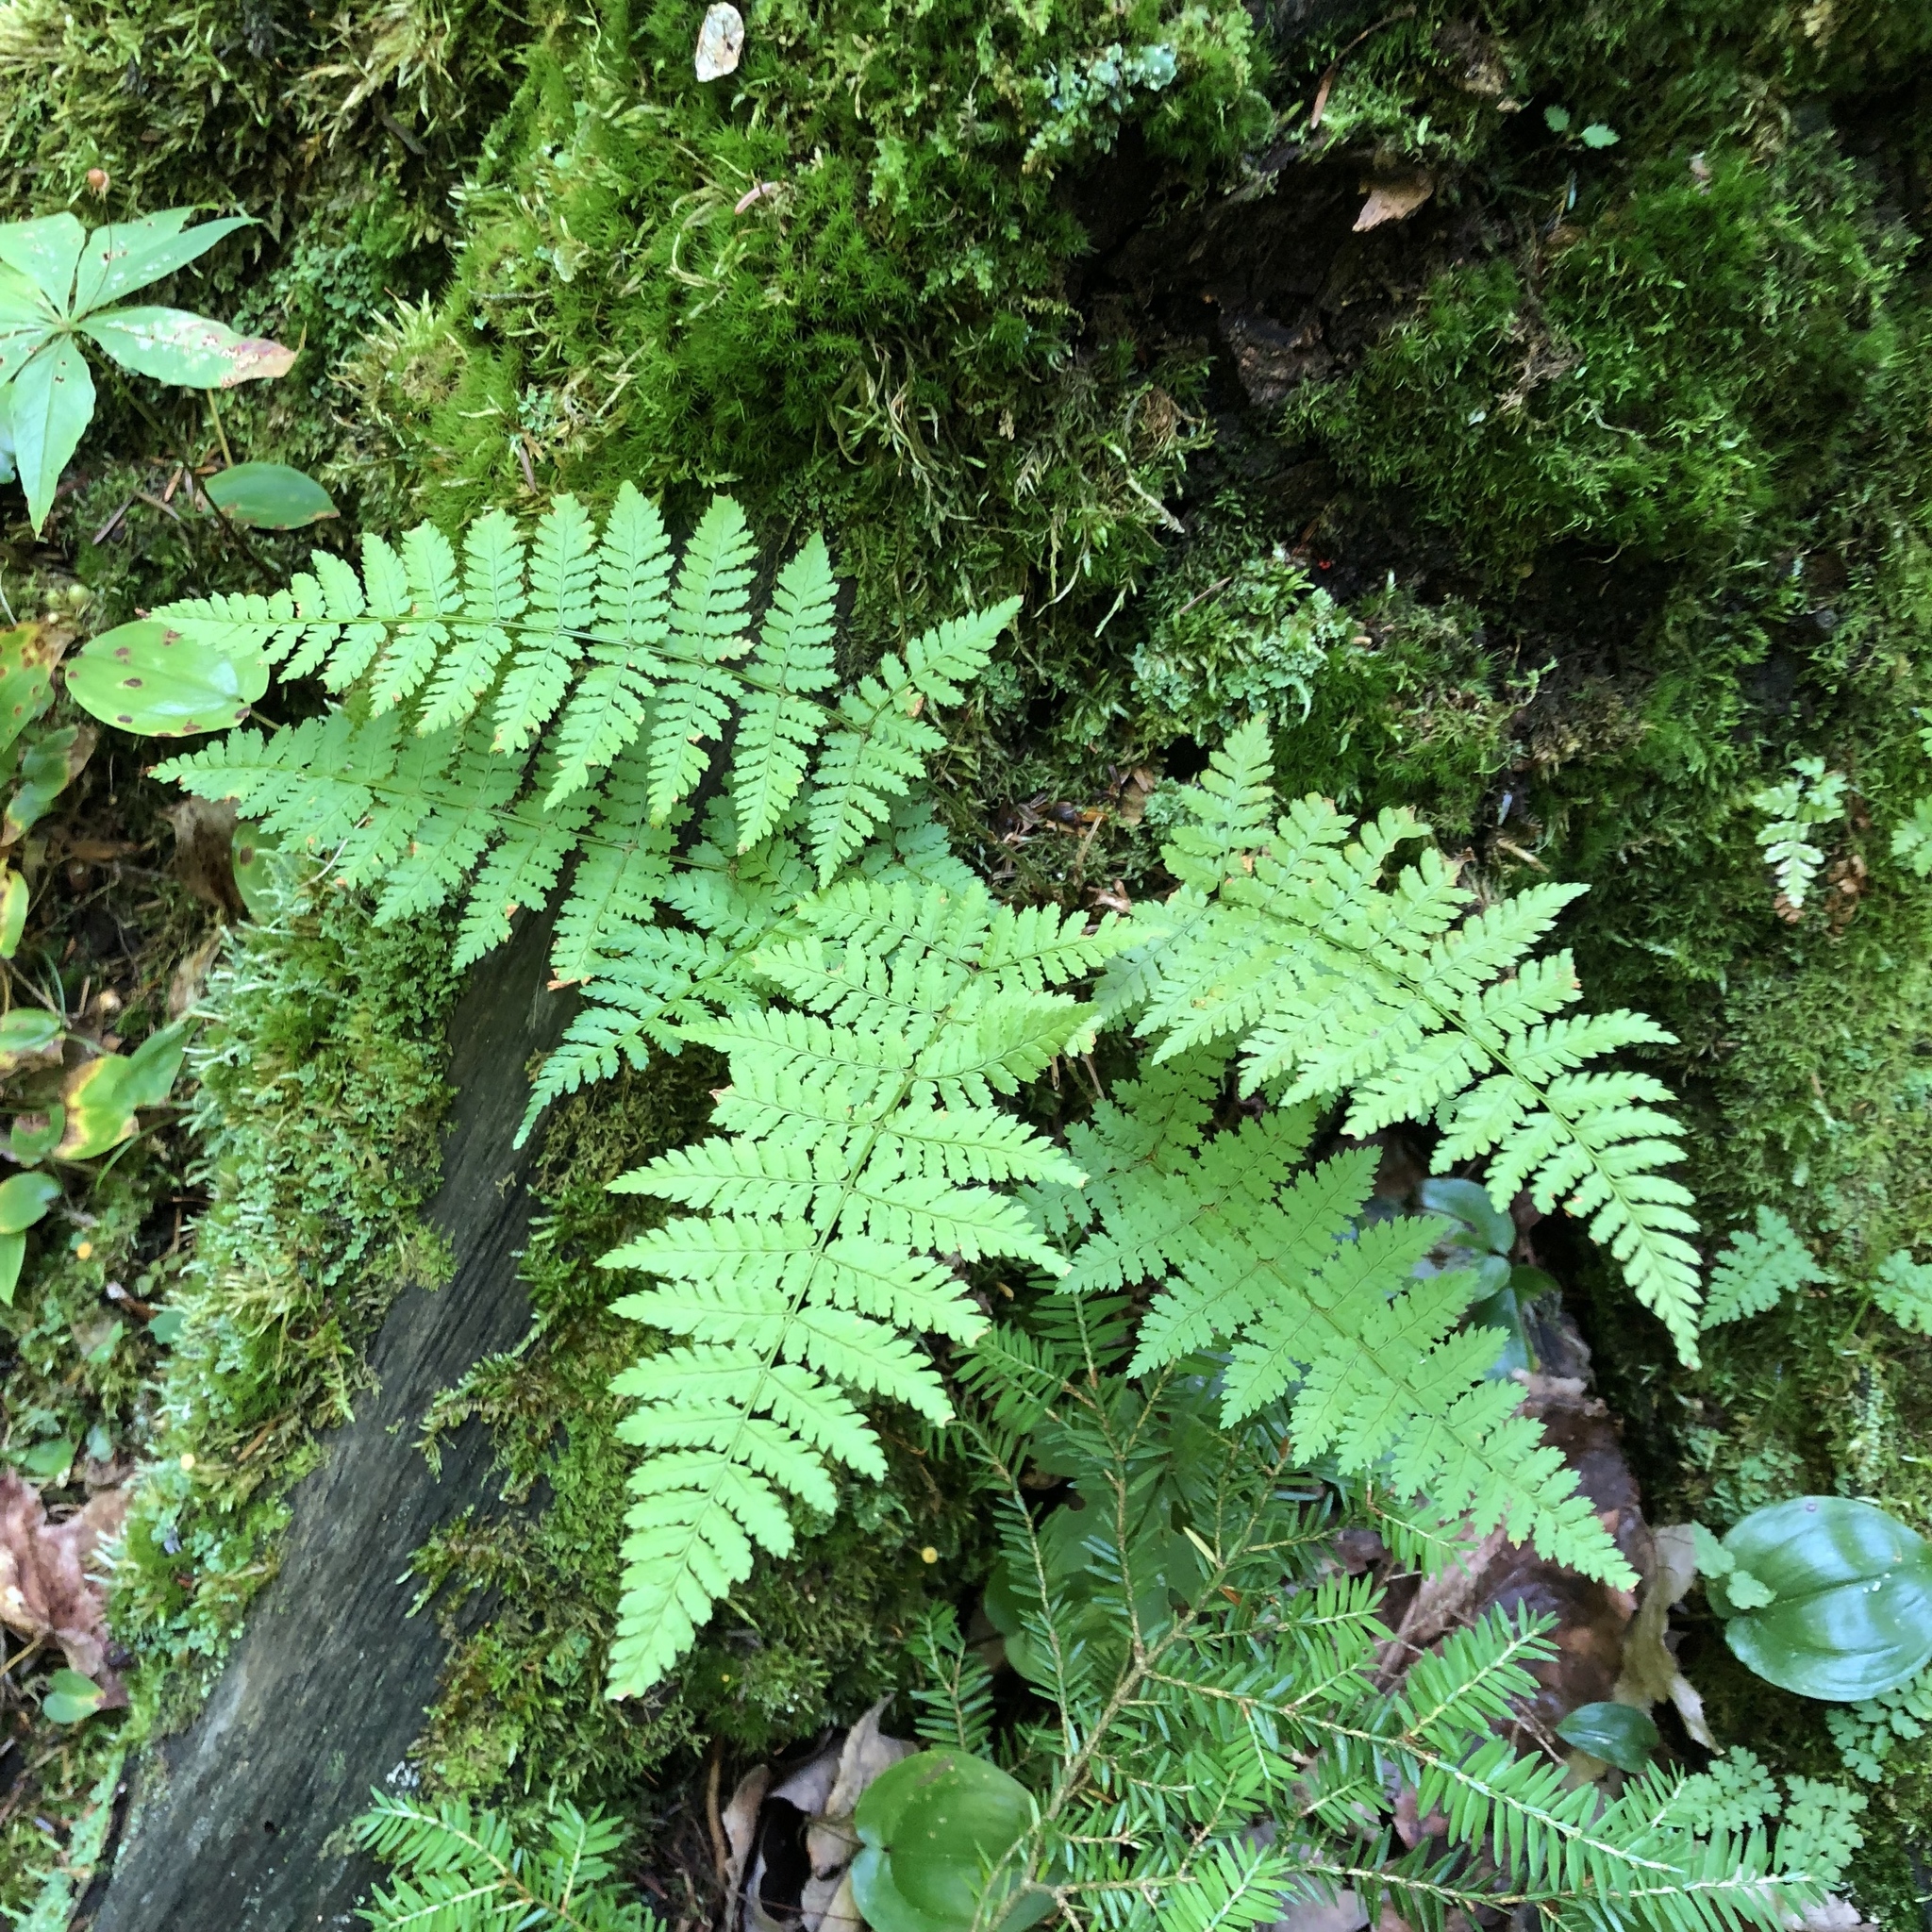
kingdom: Plantae
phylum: Tracheophyta
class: Polypodiopsida
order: Polypodiales
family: Dryopteridaceae
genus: Dryopteris
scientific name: Dryopteris carthusiana
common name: Narrow buckler-fern
